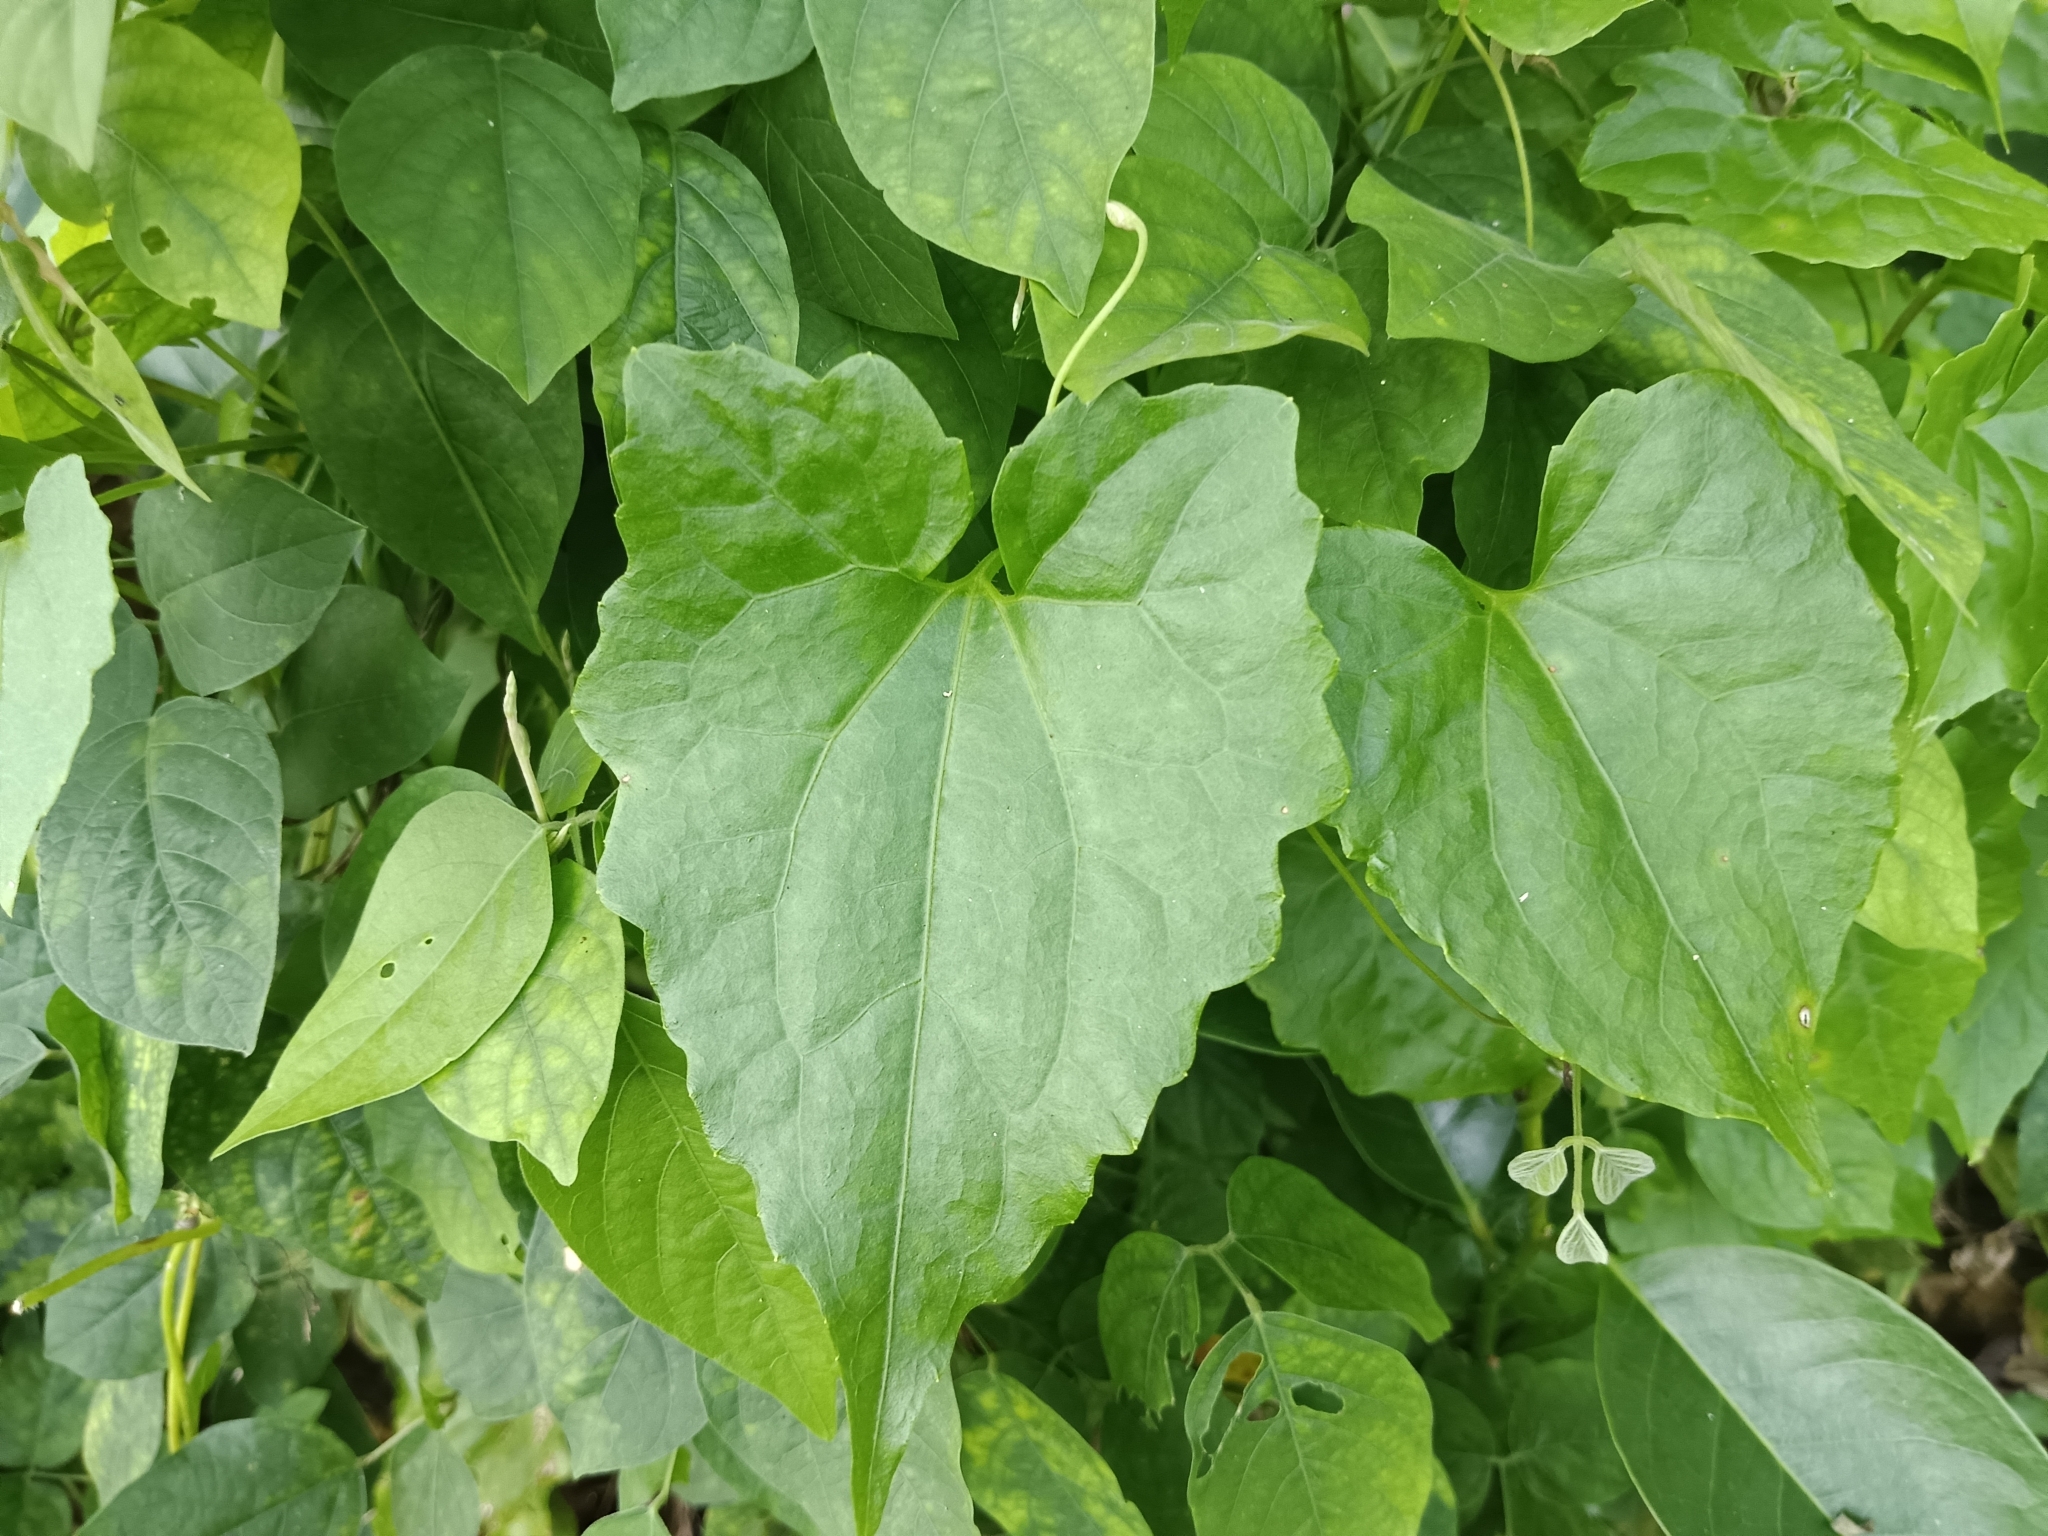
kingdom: Plantae
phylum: Tracheophyta
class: Magnoliopsida
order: Asterales
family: Asteraceae
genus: Mikania
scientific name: Mikania micrantha
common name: Mile-a-minute
